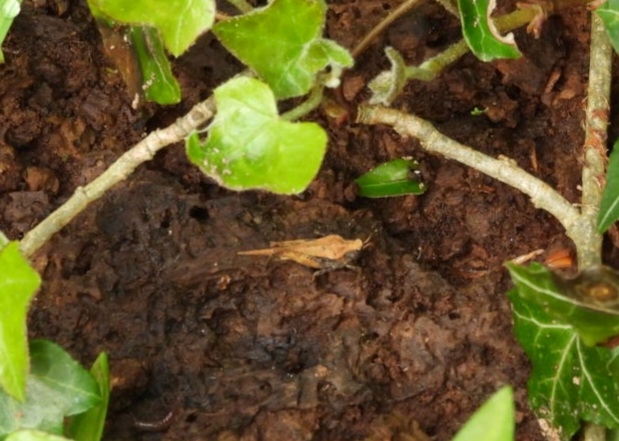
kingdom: Animalia
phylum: Arthropoda
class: Insecta
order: Orthoptera
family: Tetrigidae
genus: Tetrix
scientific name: Tetrix subulata
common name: Slender ground-hopper
